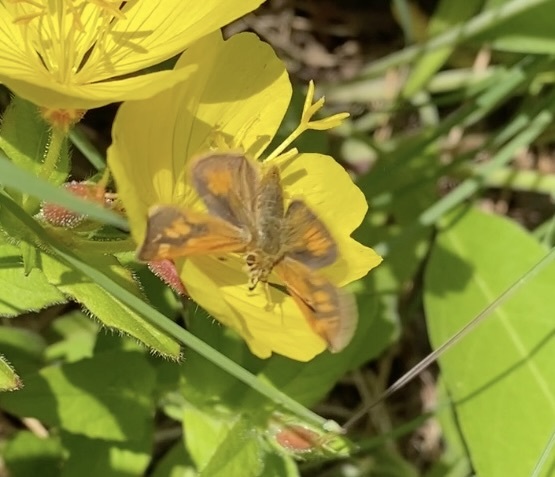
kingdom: Animalia
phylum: Arthropoda
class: Insecta
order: Lepidoptera
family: Hesperiidae
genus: Polites
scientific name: Polites coras
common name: Peck's skipper
